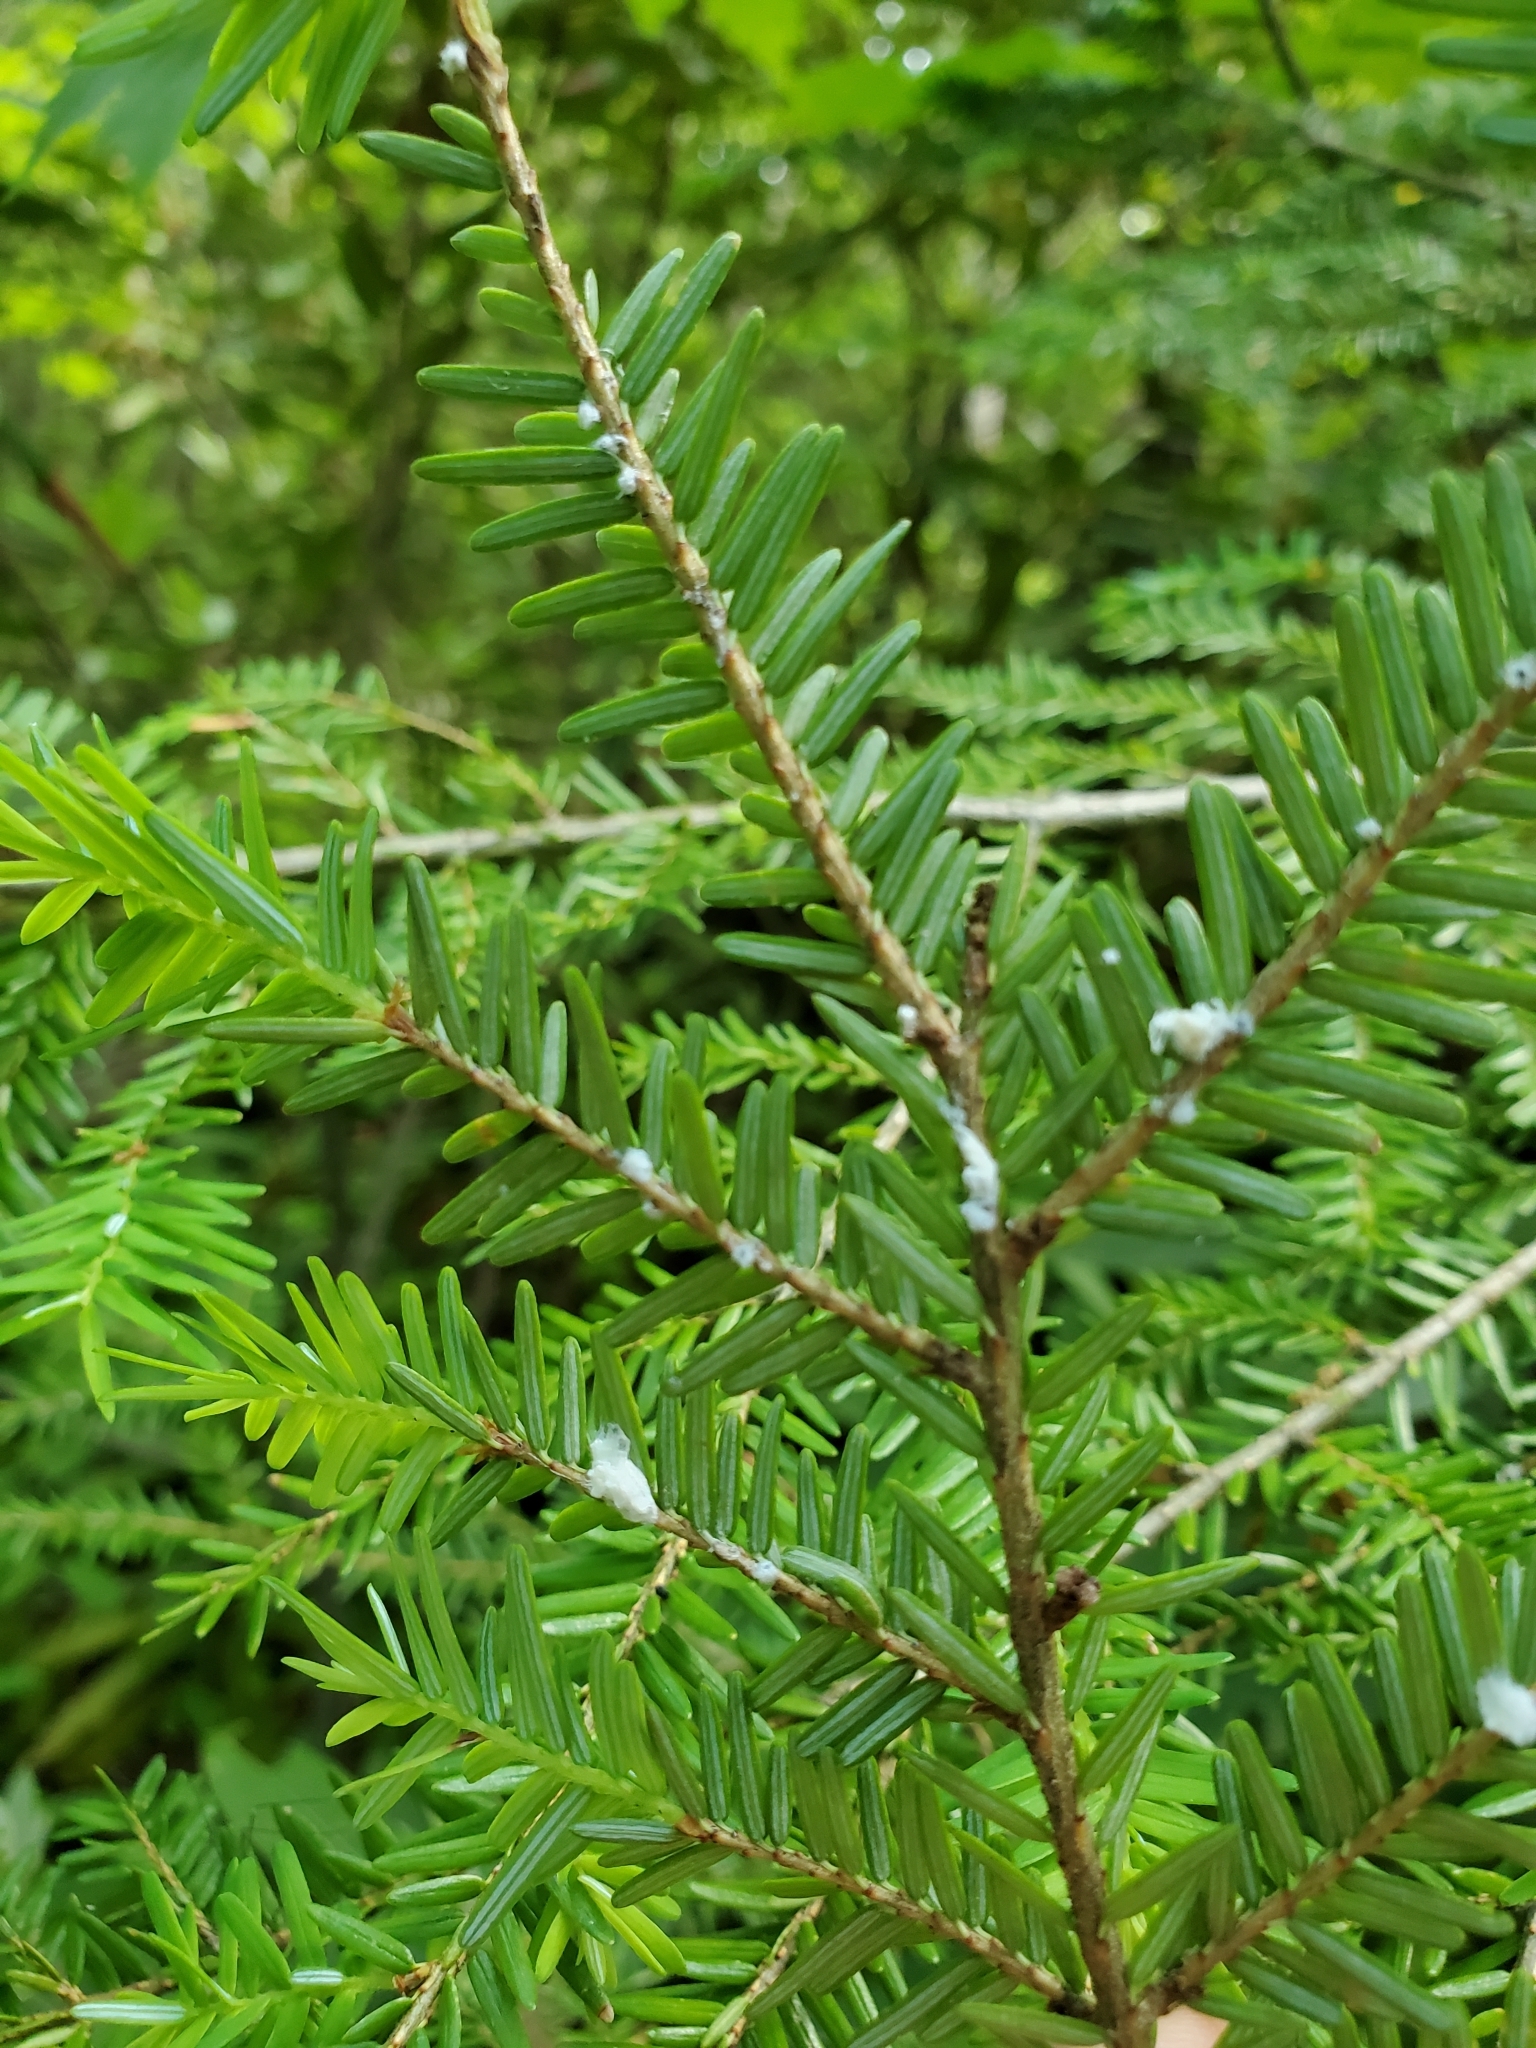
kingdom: Plantae
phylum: Tracheophyta
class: Pinopsida
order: Pinales
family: Pinaceae
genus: Tsuga
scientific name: Tsuga canadensis
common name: Eastern hemlock
